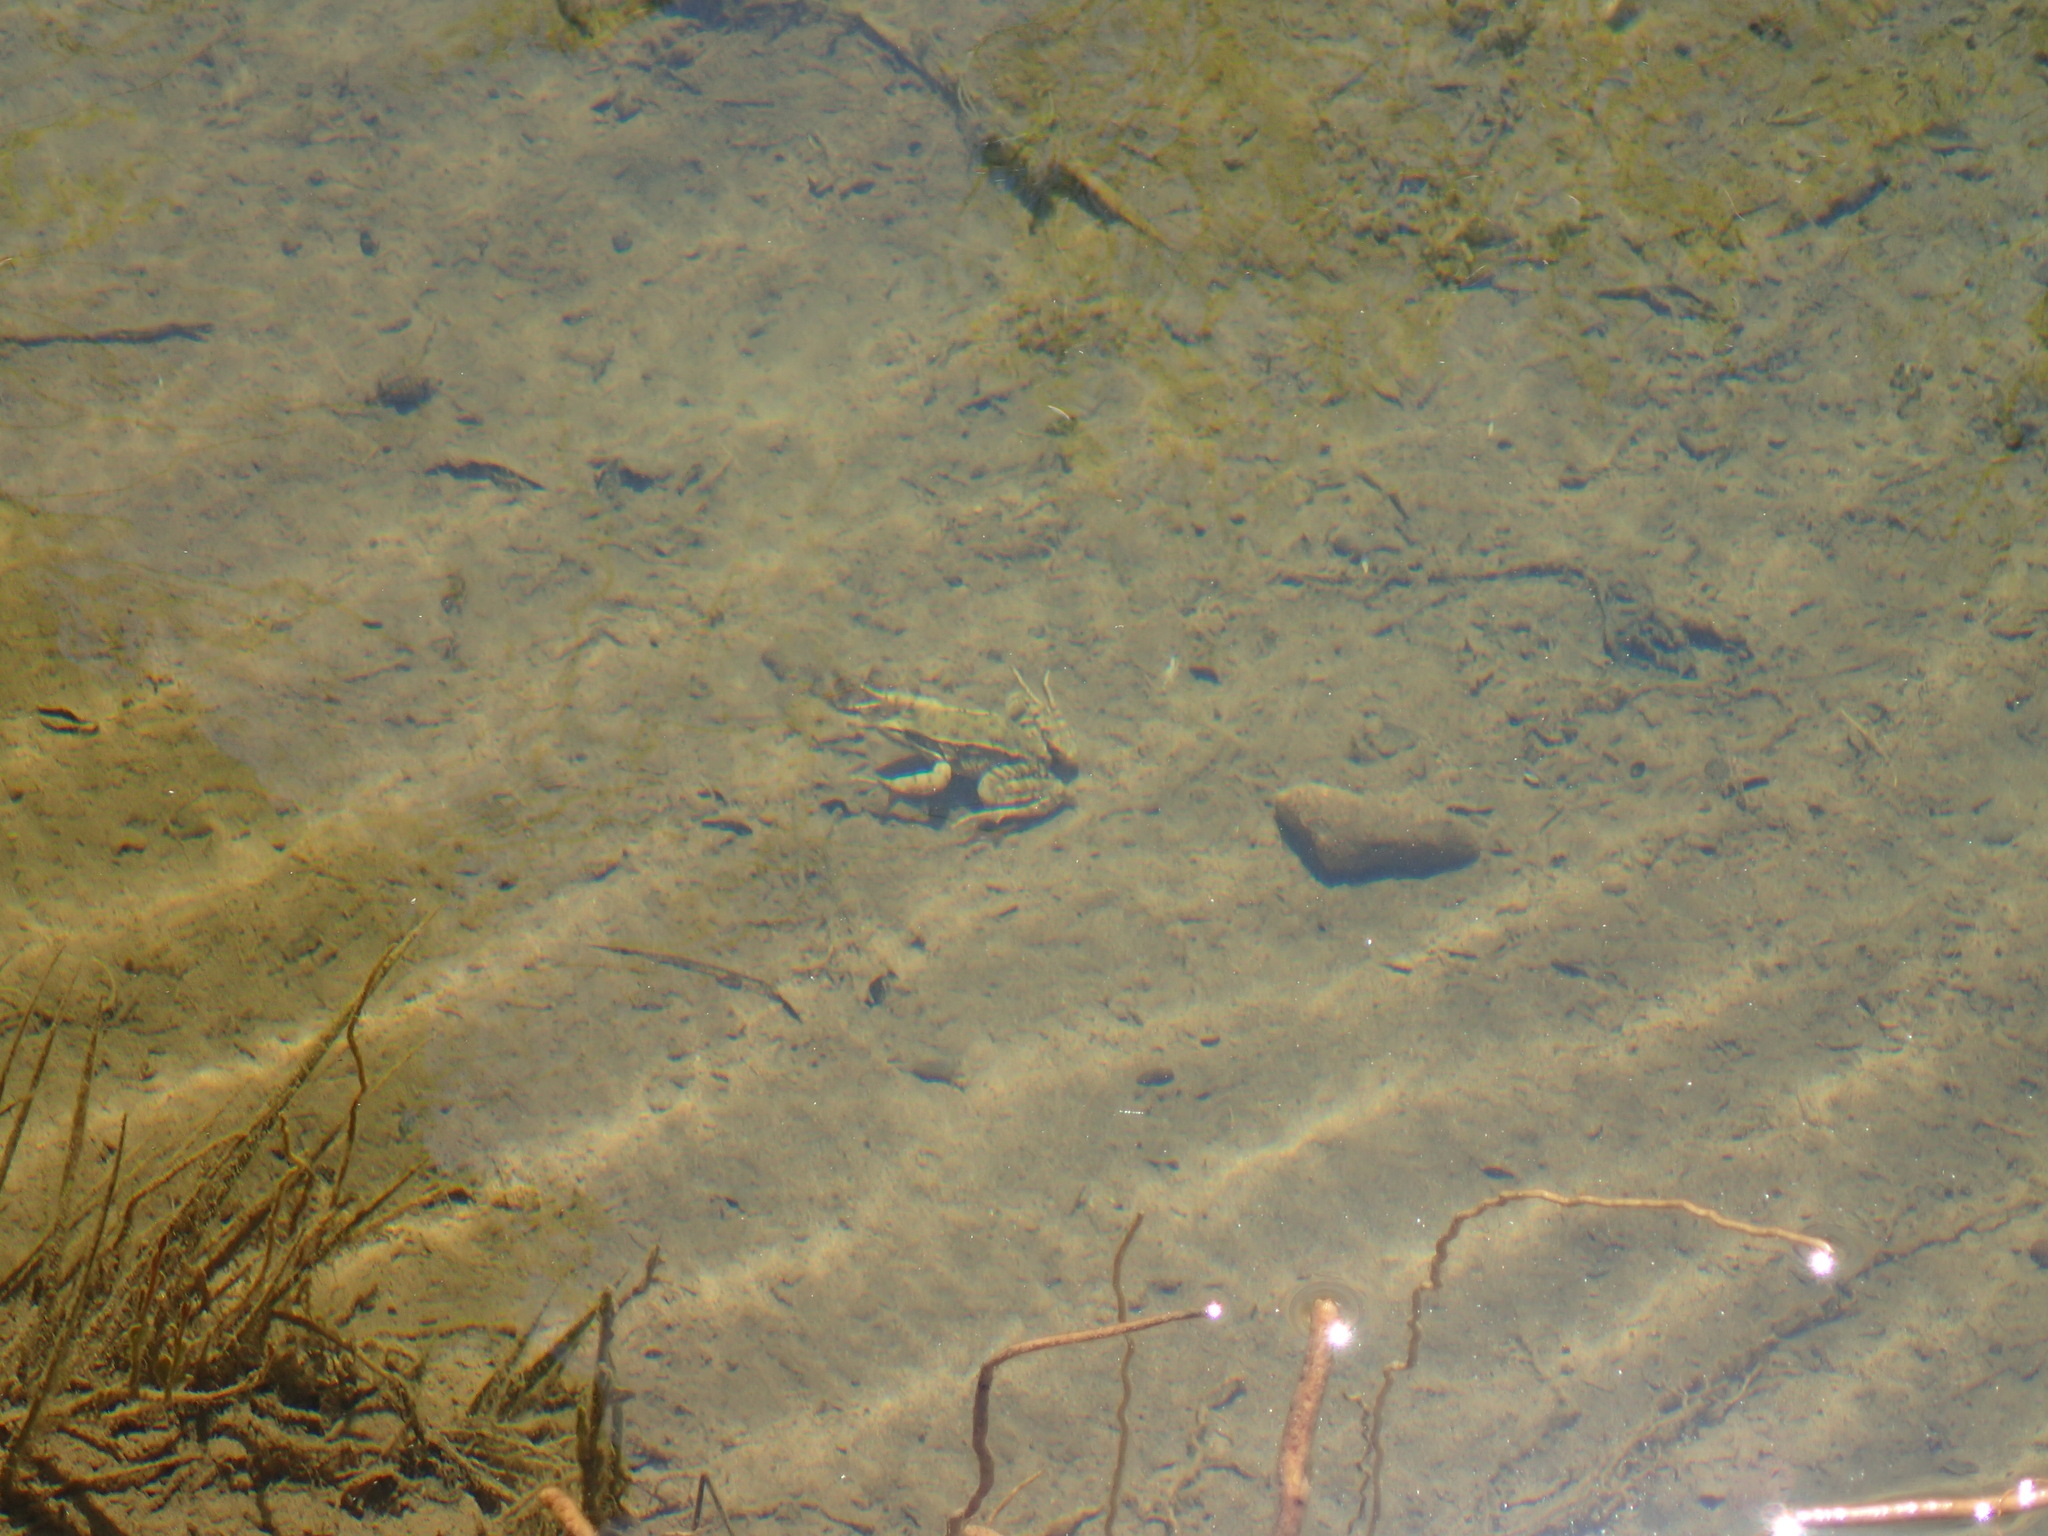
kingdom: Animalia
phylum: Chordata
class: Amphibia
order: Anura
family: Ranidae
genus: Rana
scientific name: Rana draytonii
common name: California red-legged frog
